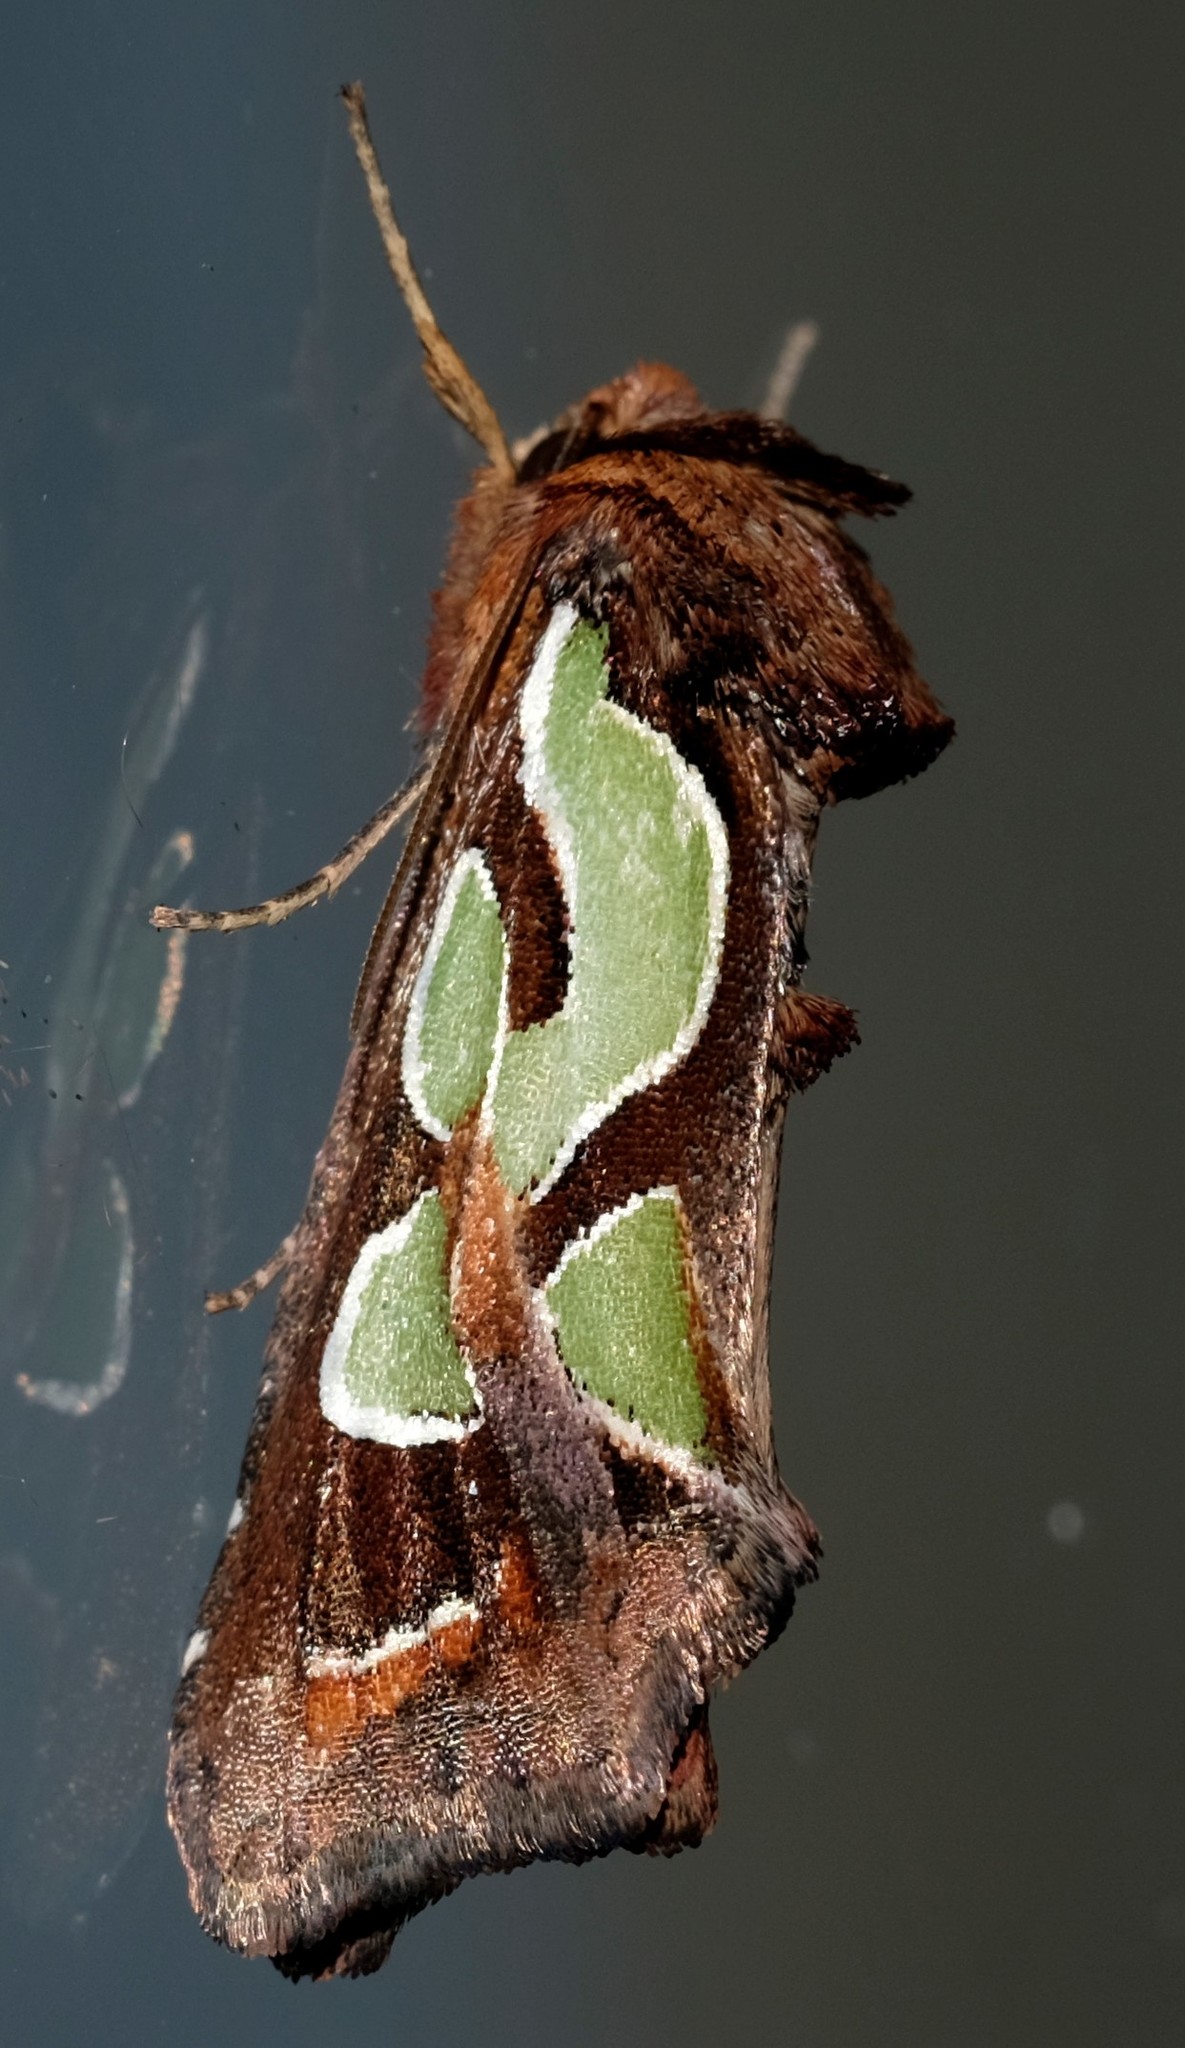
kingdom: Animalia
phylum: Arthropoda
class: Insecta
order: Lepidoptera
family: Noctuidae
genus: Cosmodes
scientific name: Cosmodes elegans
